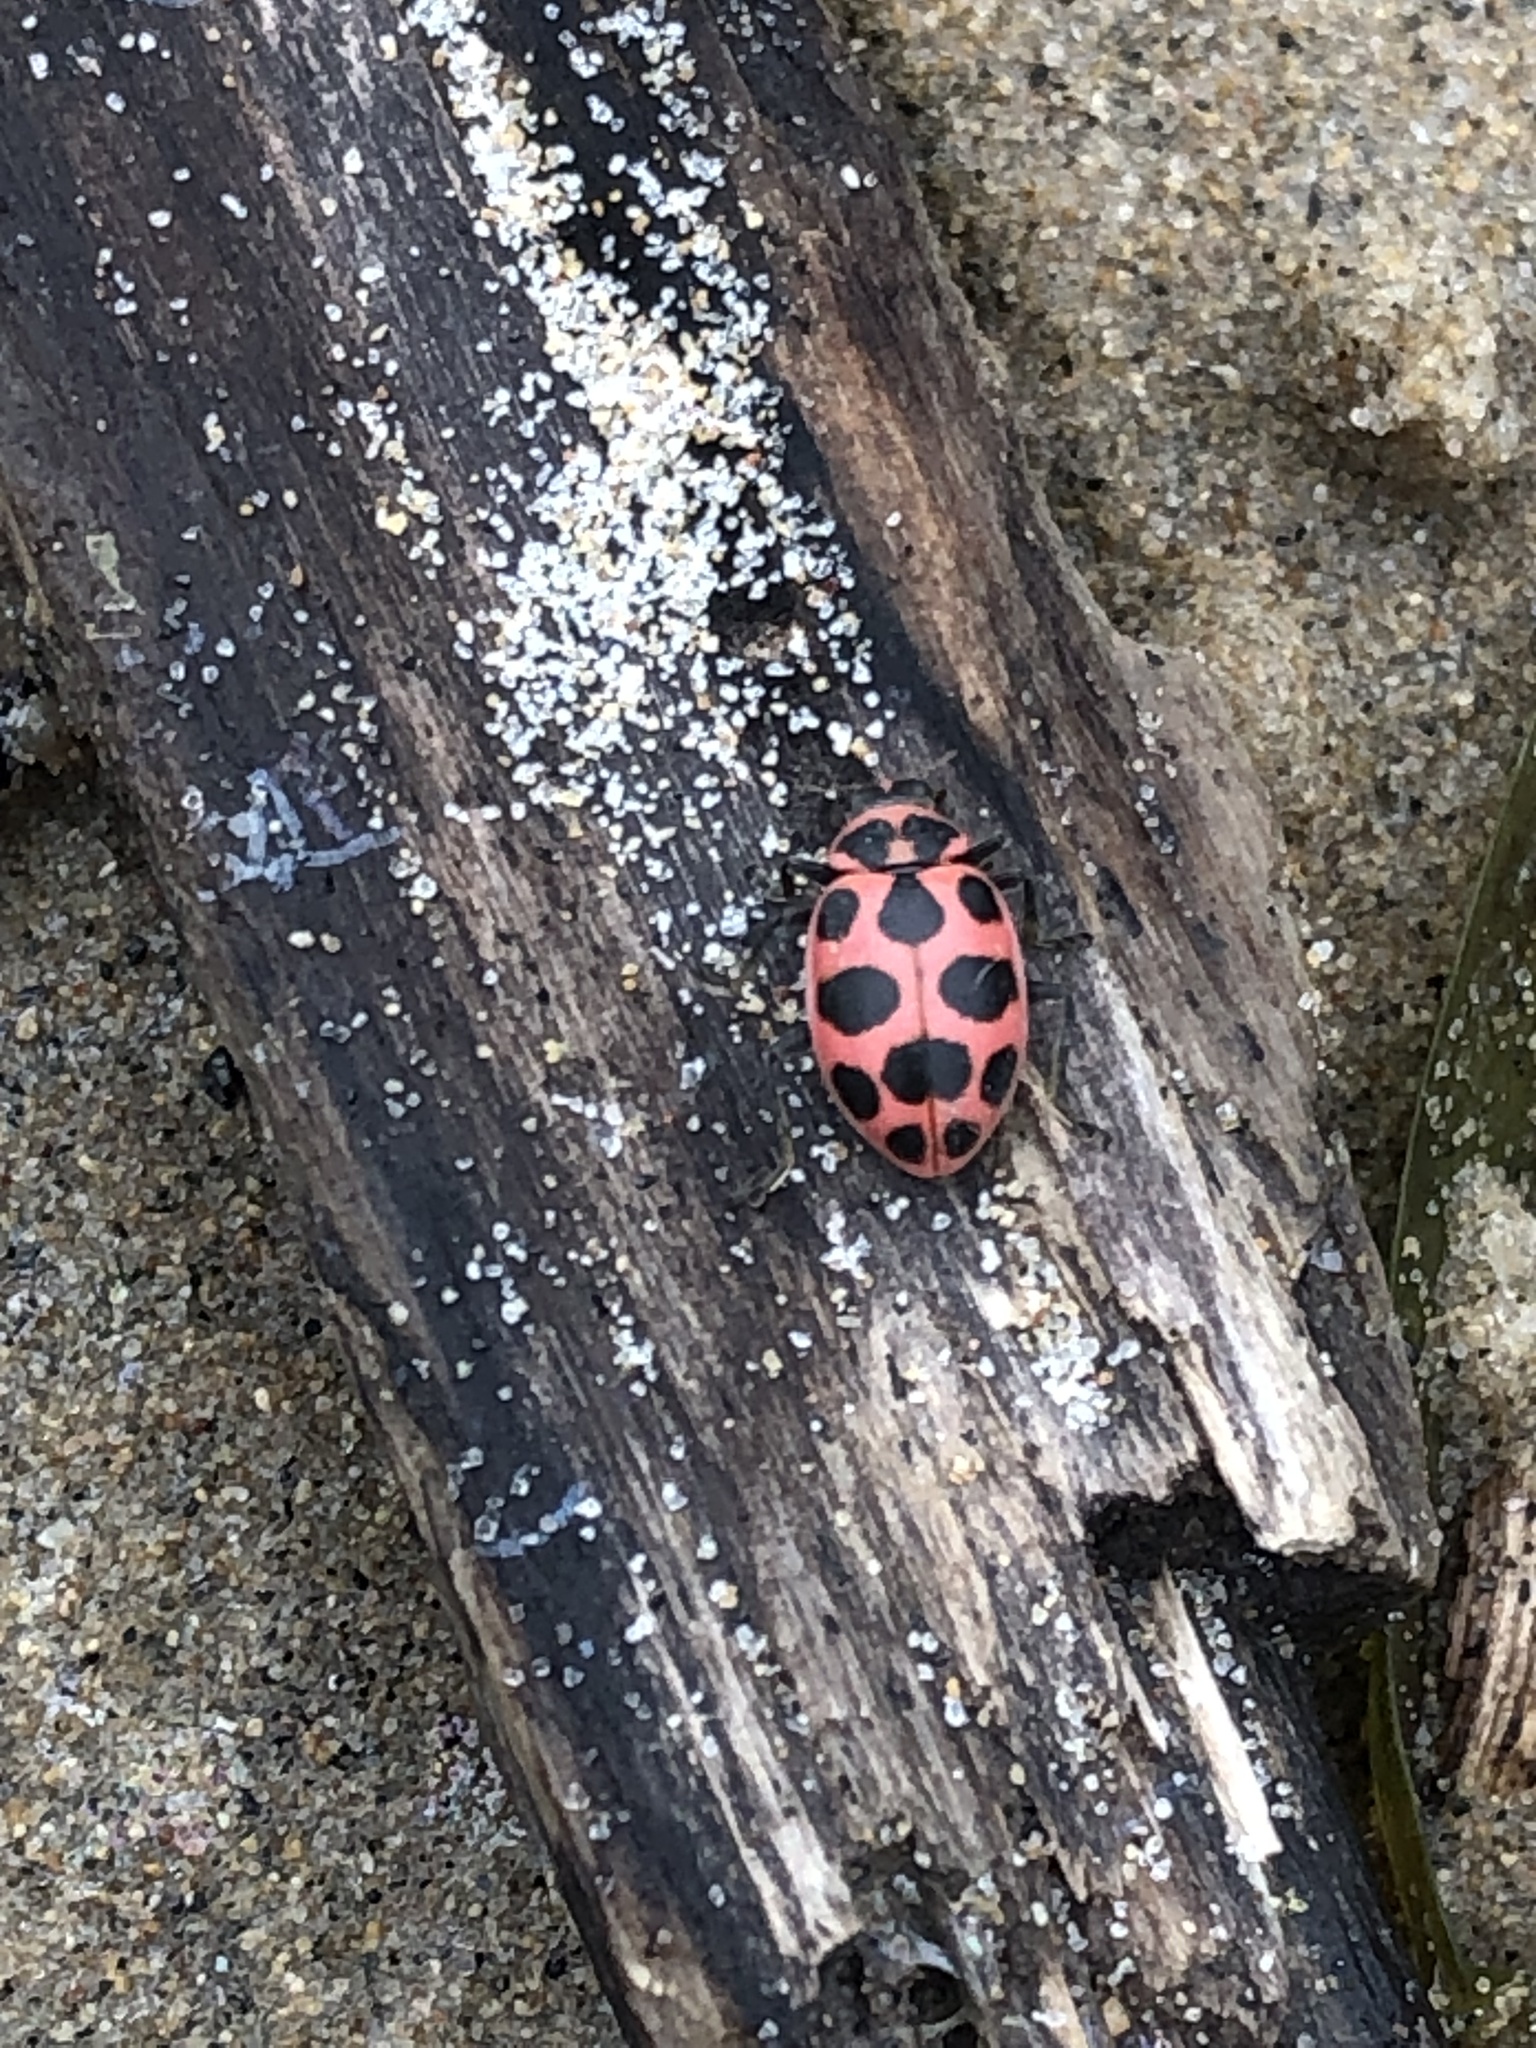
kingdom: Animalia
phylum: Arthropoda
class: Insecta
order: Coleoptera
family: Coccinellidae
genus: Coleomegilla
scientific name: Coleomegilla maculata
